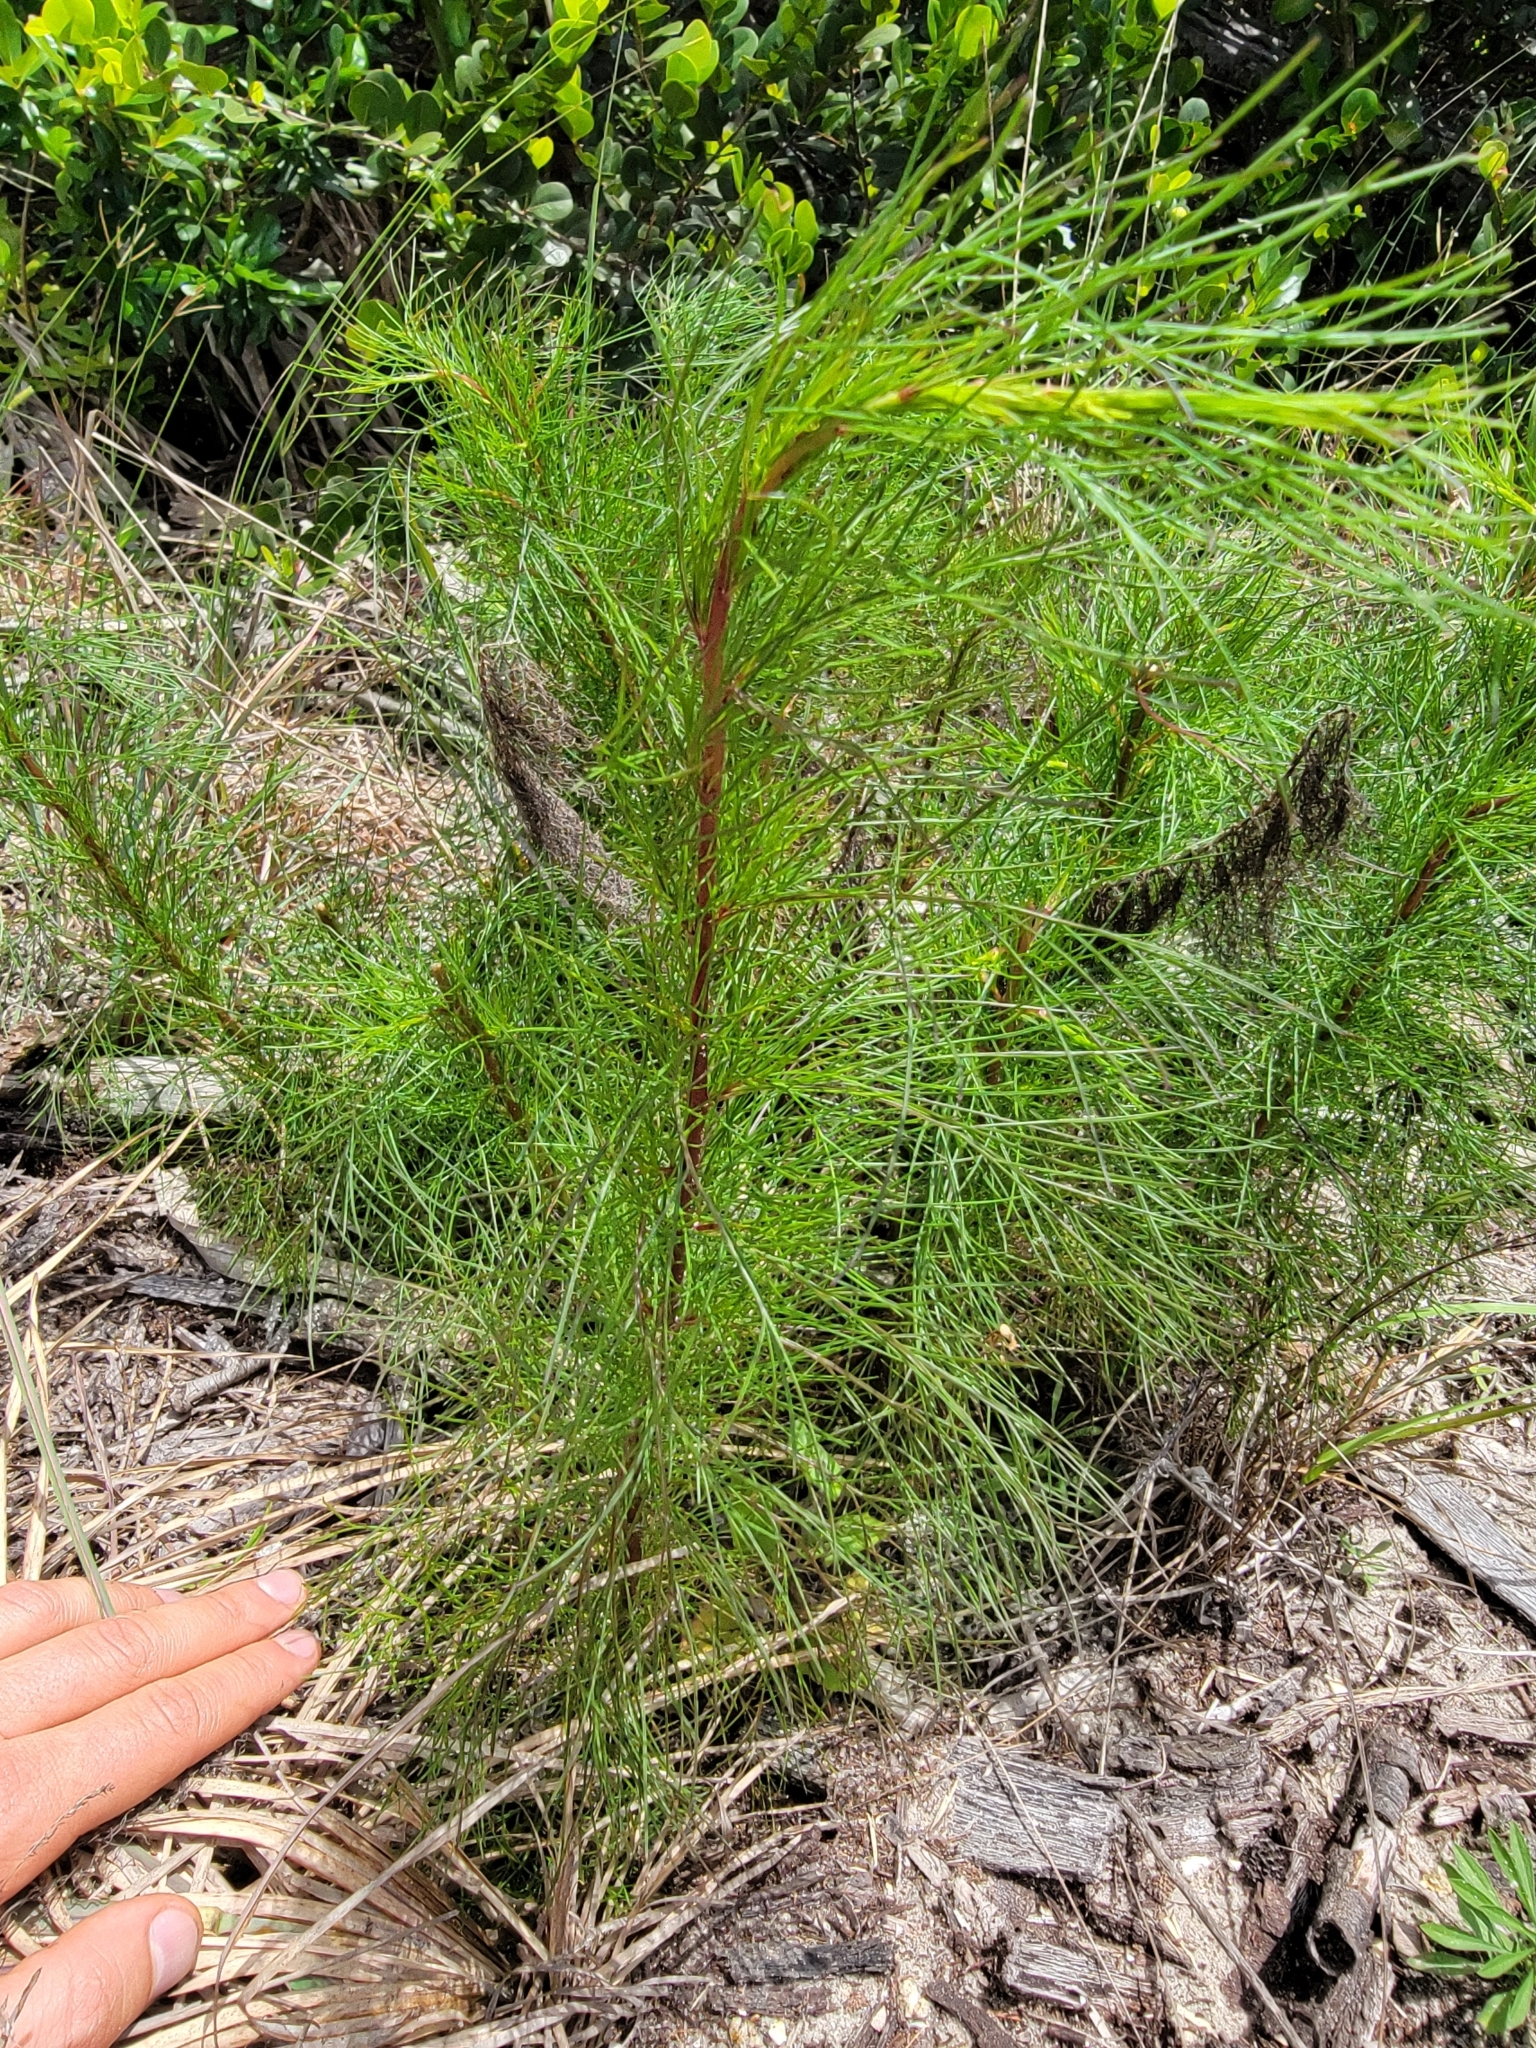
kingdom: Plantae
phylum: Tracheophyta
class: Magnoliopsida
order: Asterales
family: Asteraceae
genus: Eupatorium
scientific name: Eupatorium capillifolium
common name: Dog-fennel
